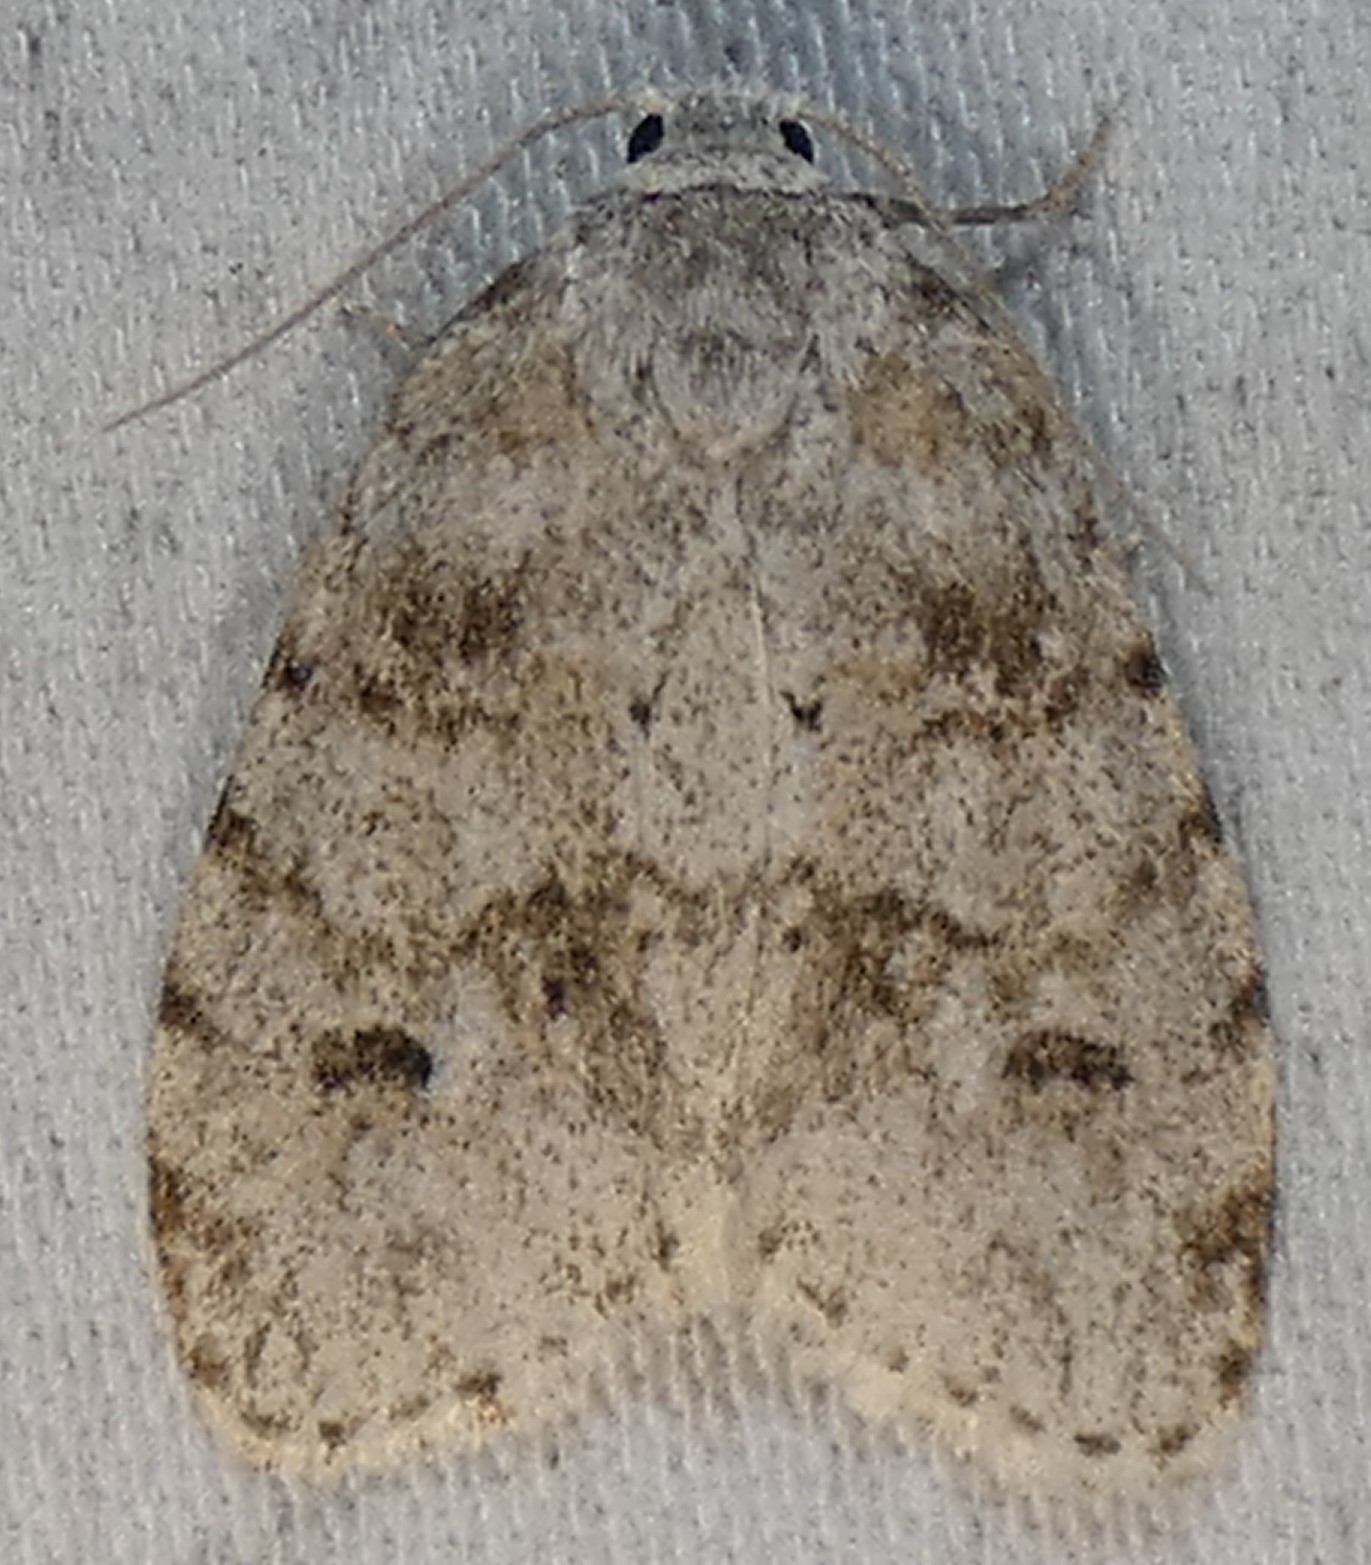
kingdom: Animalia
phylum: Arthropoda
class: Insecta
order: Lepidoptera
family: Erebidae
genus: Clemensia
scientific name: Clemensia albata
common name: Little white lichen moth
